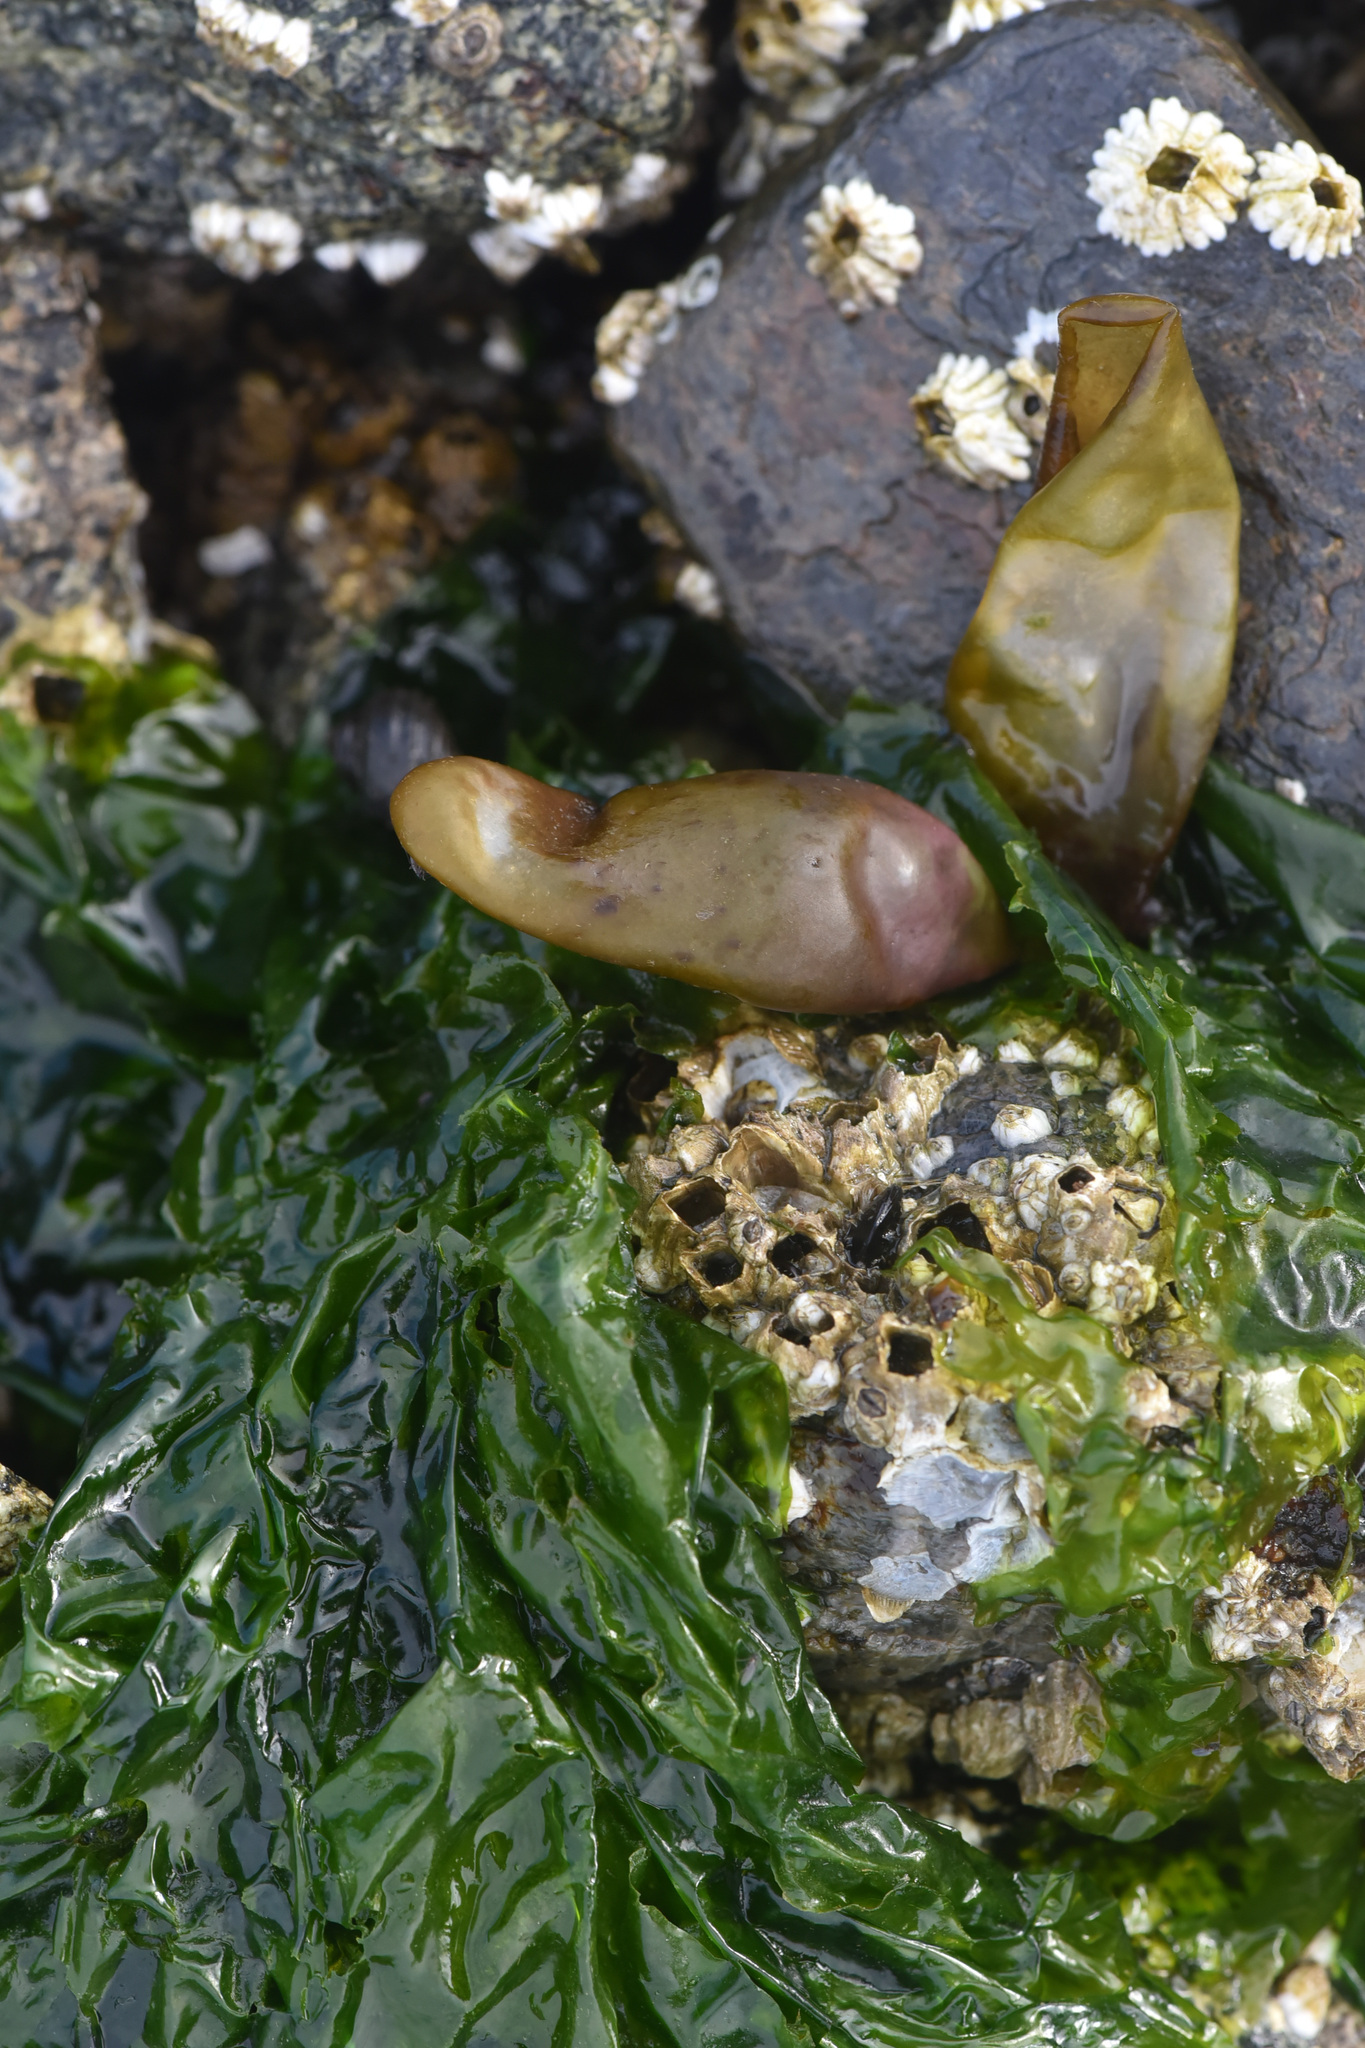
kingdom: Plantae
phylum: Rhodophyta
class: Florideophyceae
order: Palmariales
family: Palmariaceae
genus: Halosaccion
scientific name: Halosaccion glandiforme
